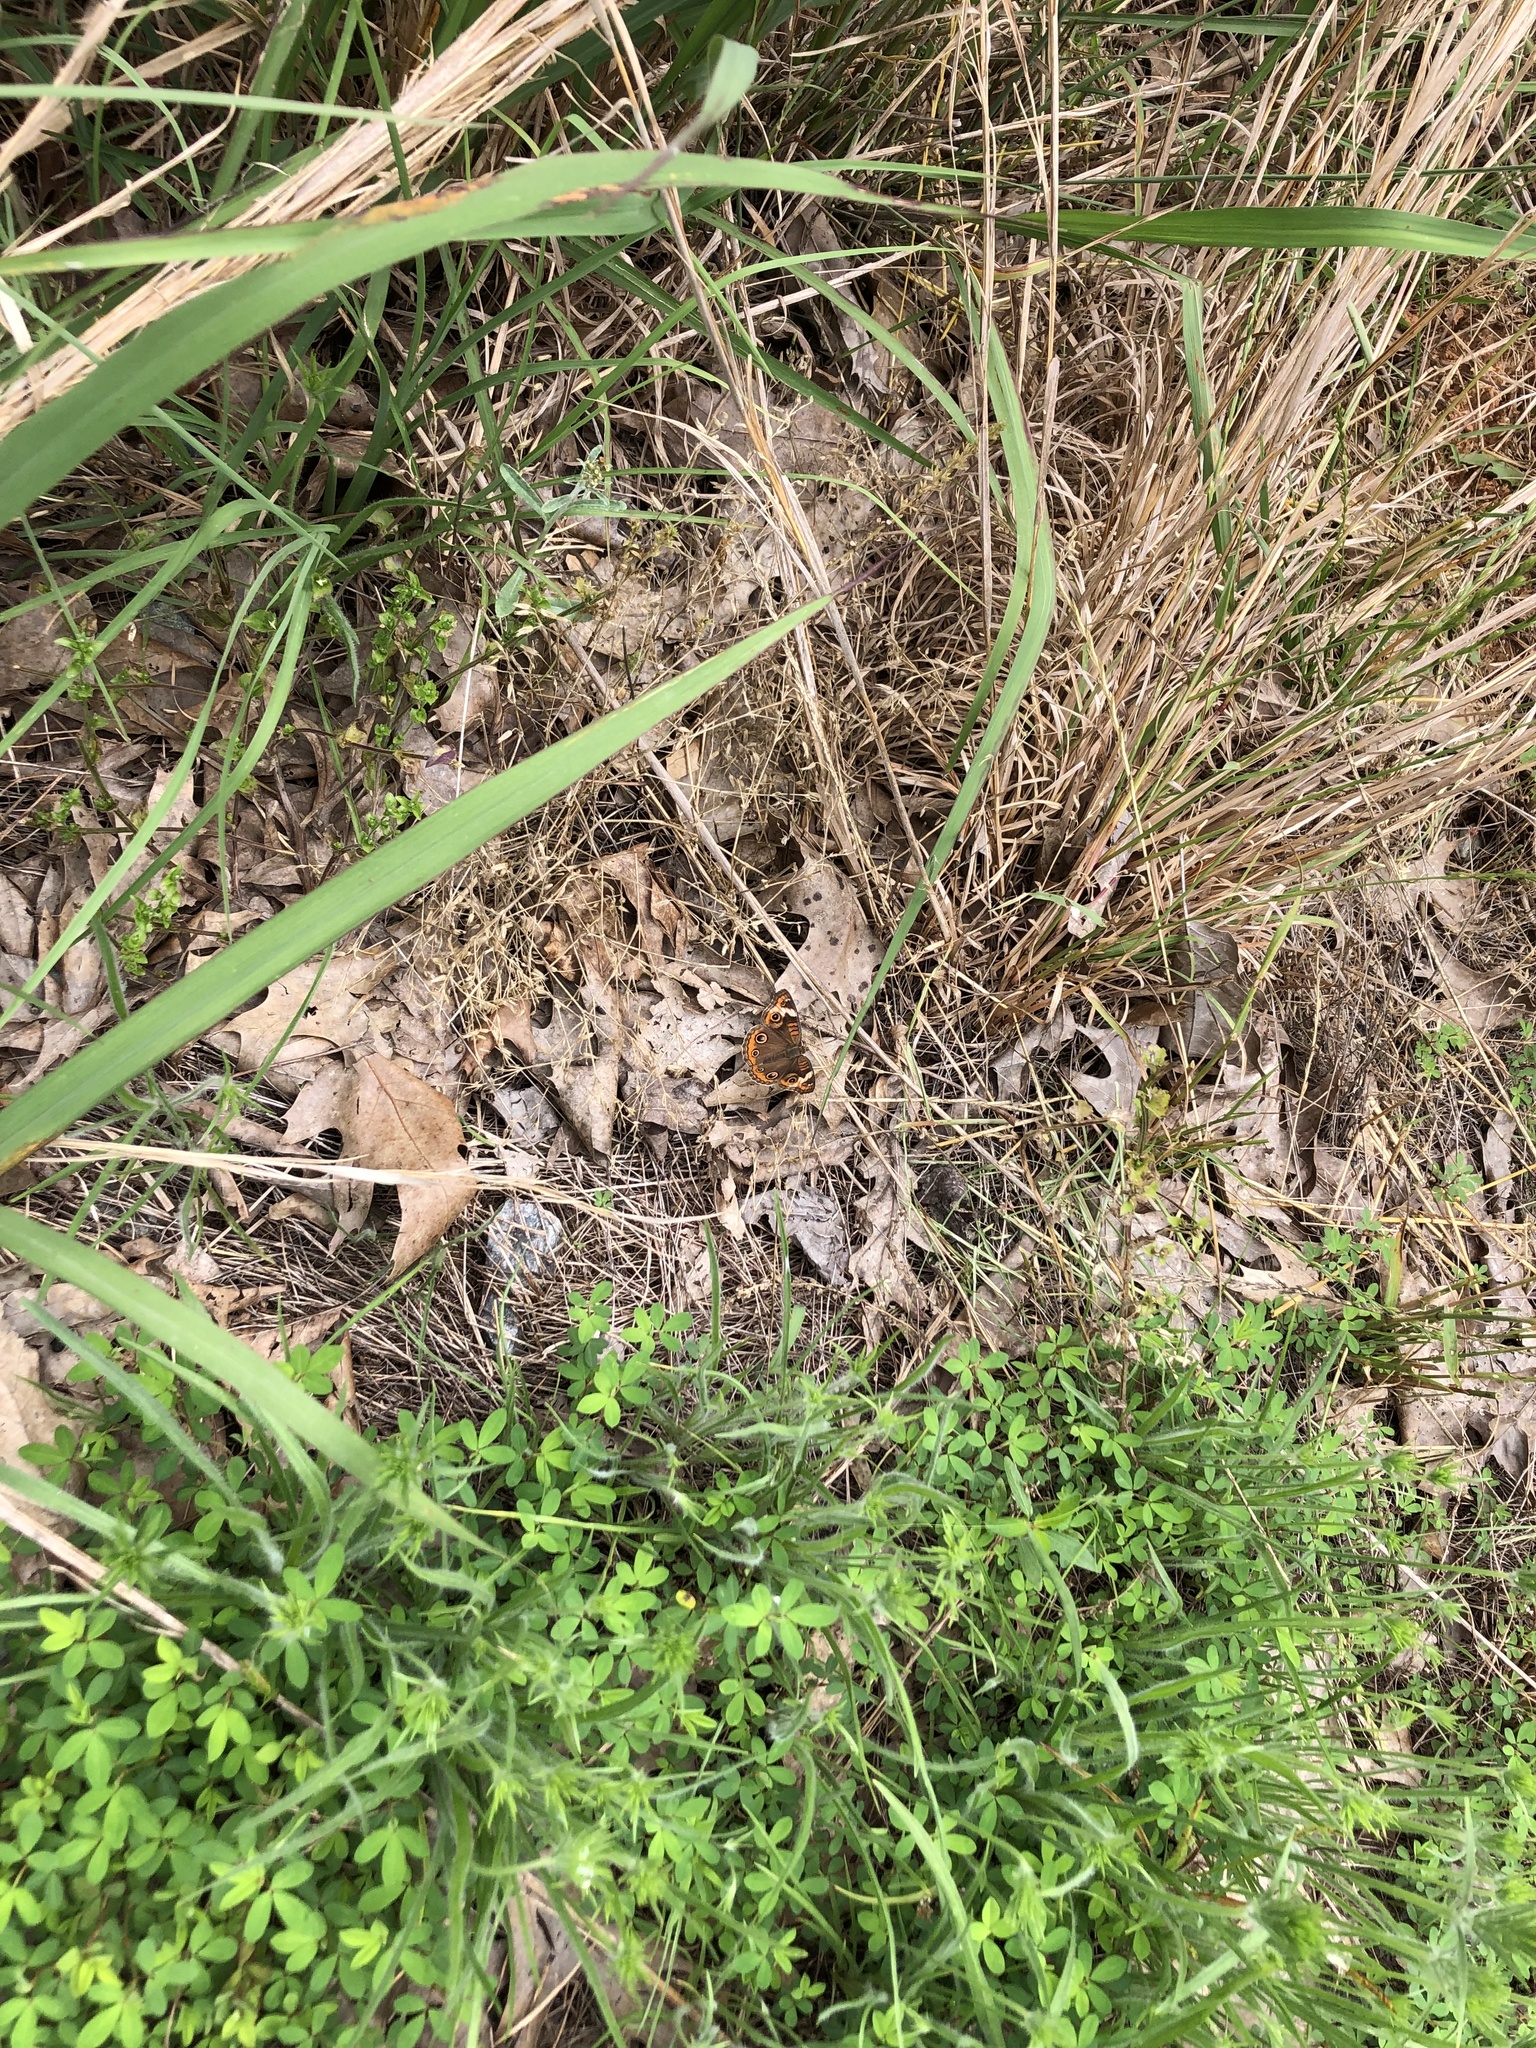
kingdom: Animalia
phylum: Arthropoda
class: Insecta
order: Lepidoptera
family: Nymphalidae
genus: Junonia
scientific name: Junonia coenia
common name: Common buckeye
